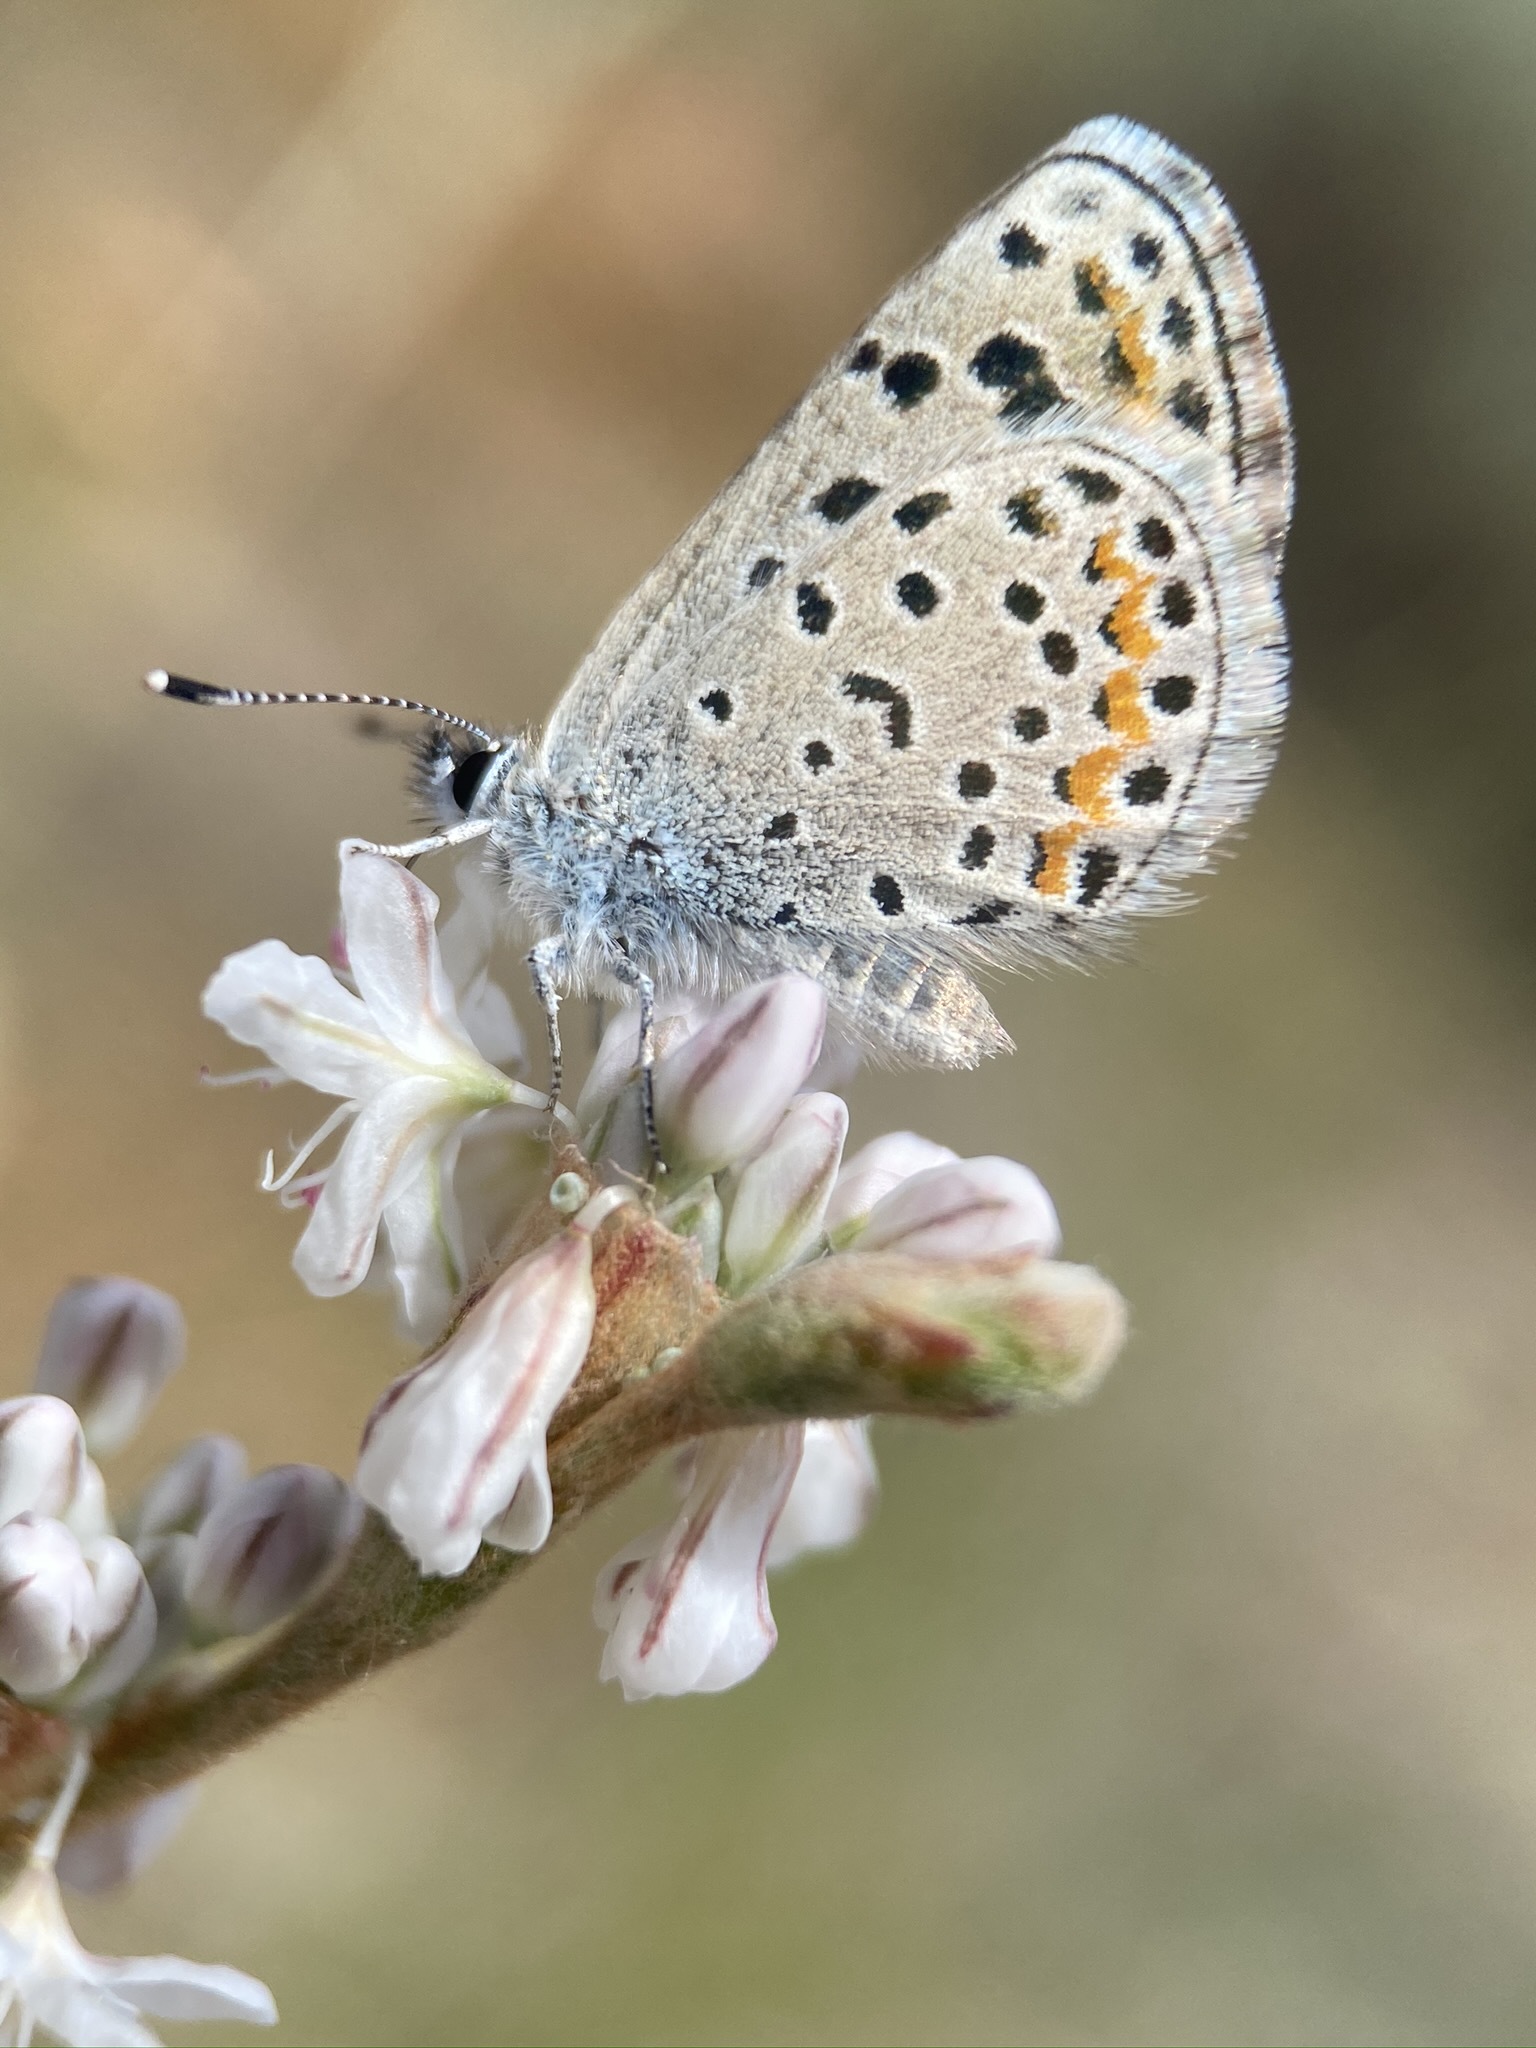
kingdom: Animalia
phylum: Arthropoda
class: Insecta
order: Lepidoptera
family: Lycaenidae
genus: Euphilotes
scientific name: Euphilotes spaldingi
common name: Spalding's blue
